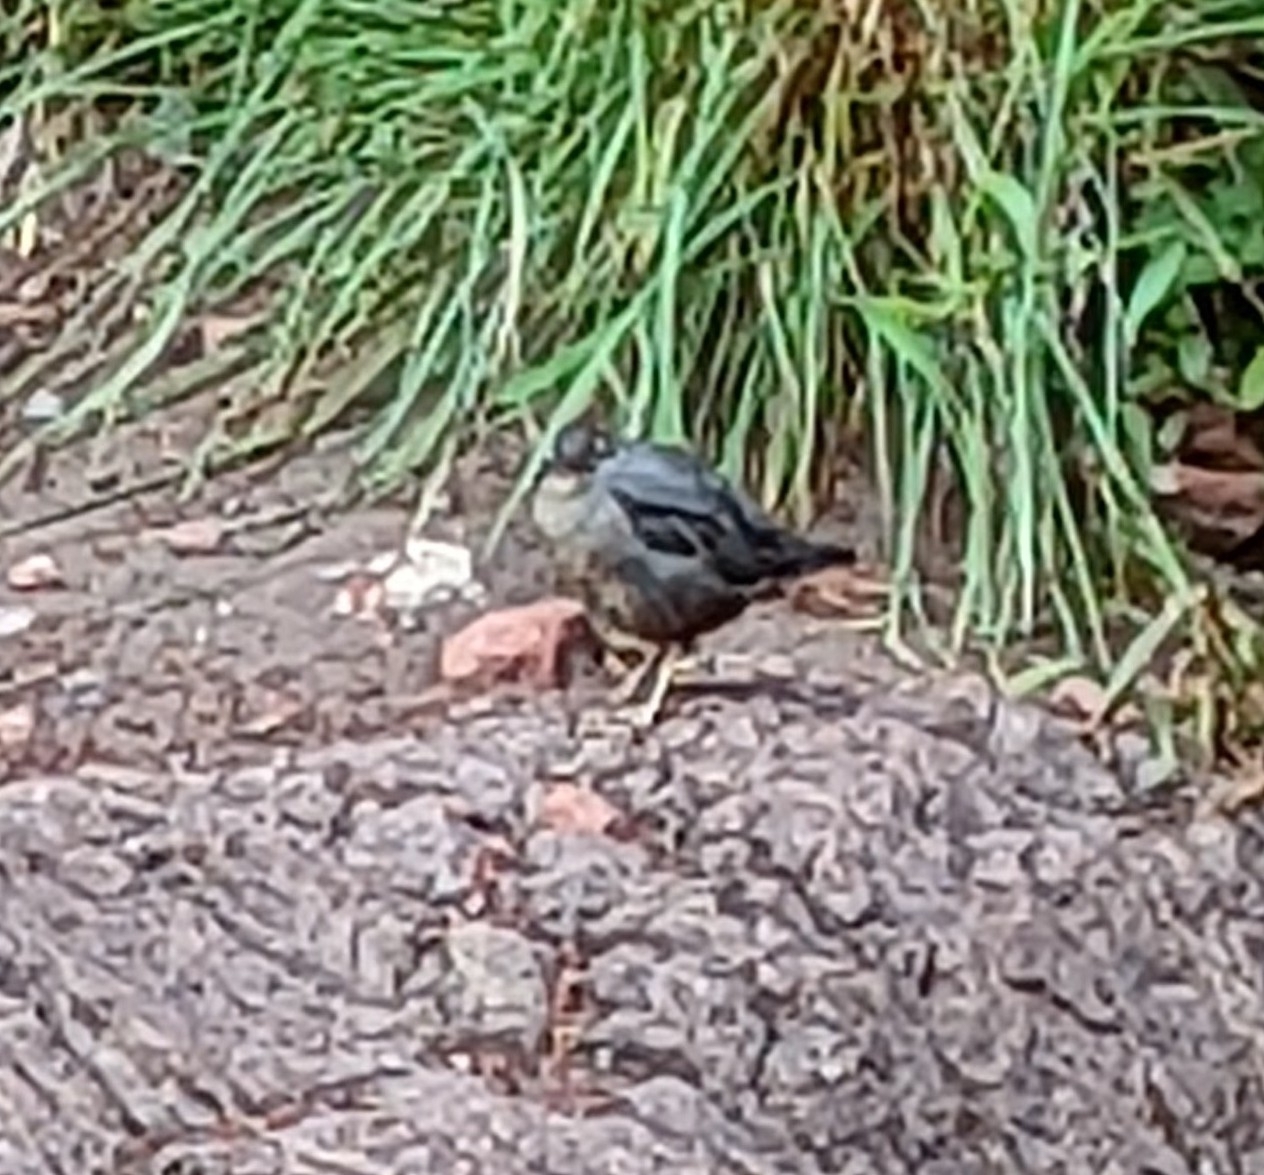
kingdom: Animalia
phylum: Chordata
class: Aves
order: Passeriformes
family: Cinclidae
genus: Cinclus
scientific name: Cinclus mexicanus
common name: American dipper
